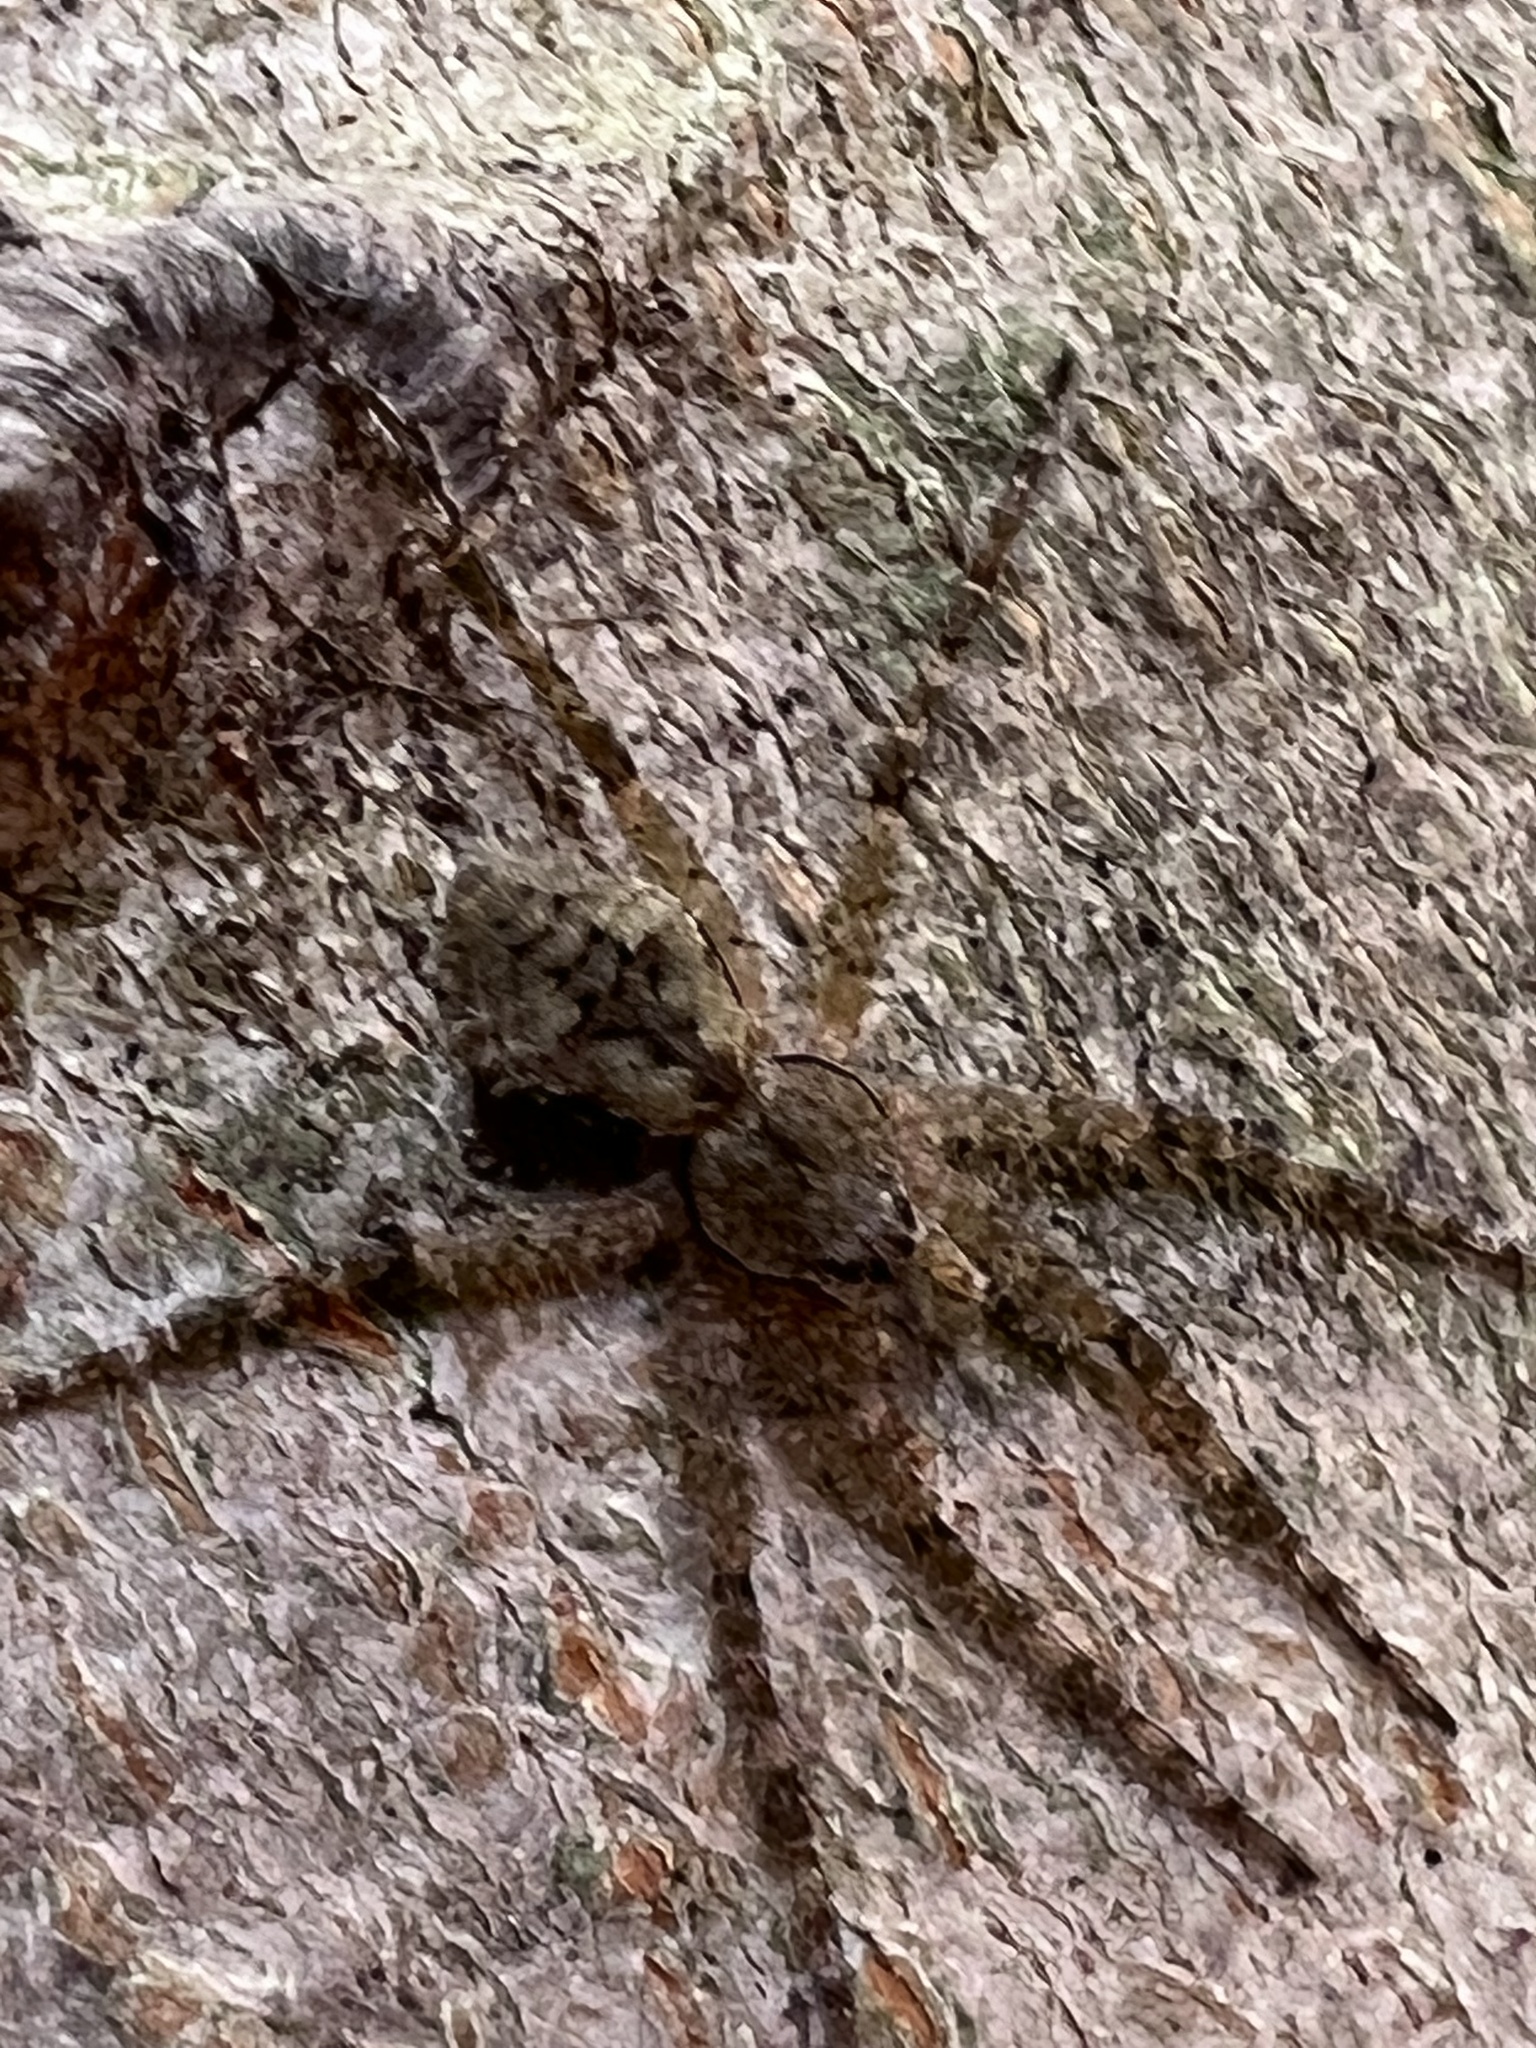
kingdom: Animalia
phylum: Arthropoda
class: Arachnida
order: Araneae
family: Pisauridae
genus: Dolomedes
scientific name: Dolomedes albineus
